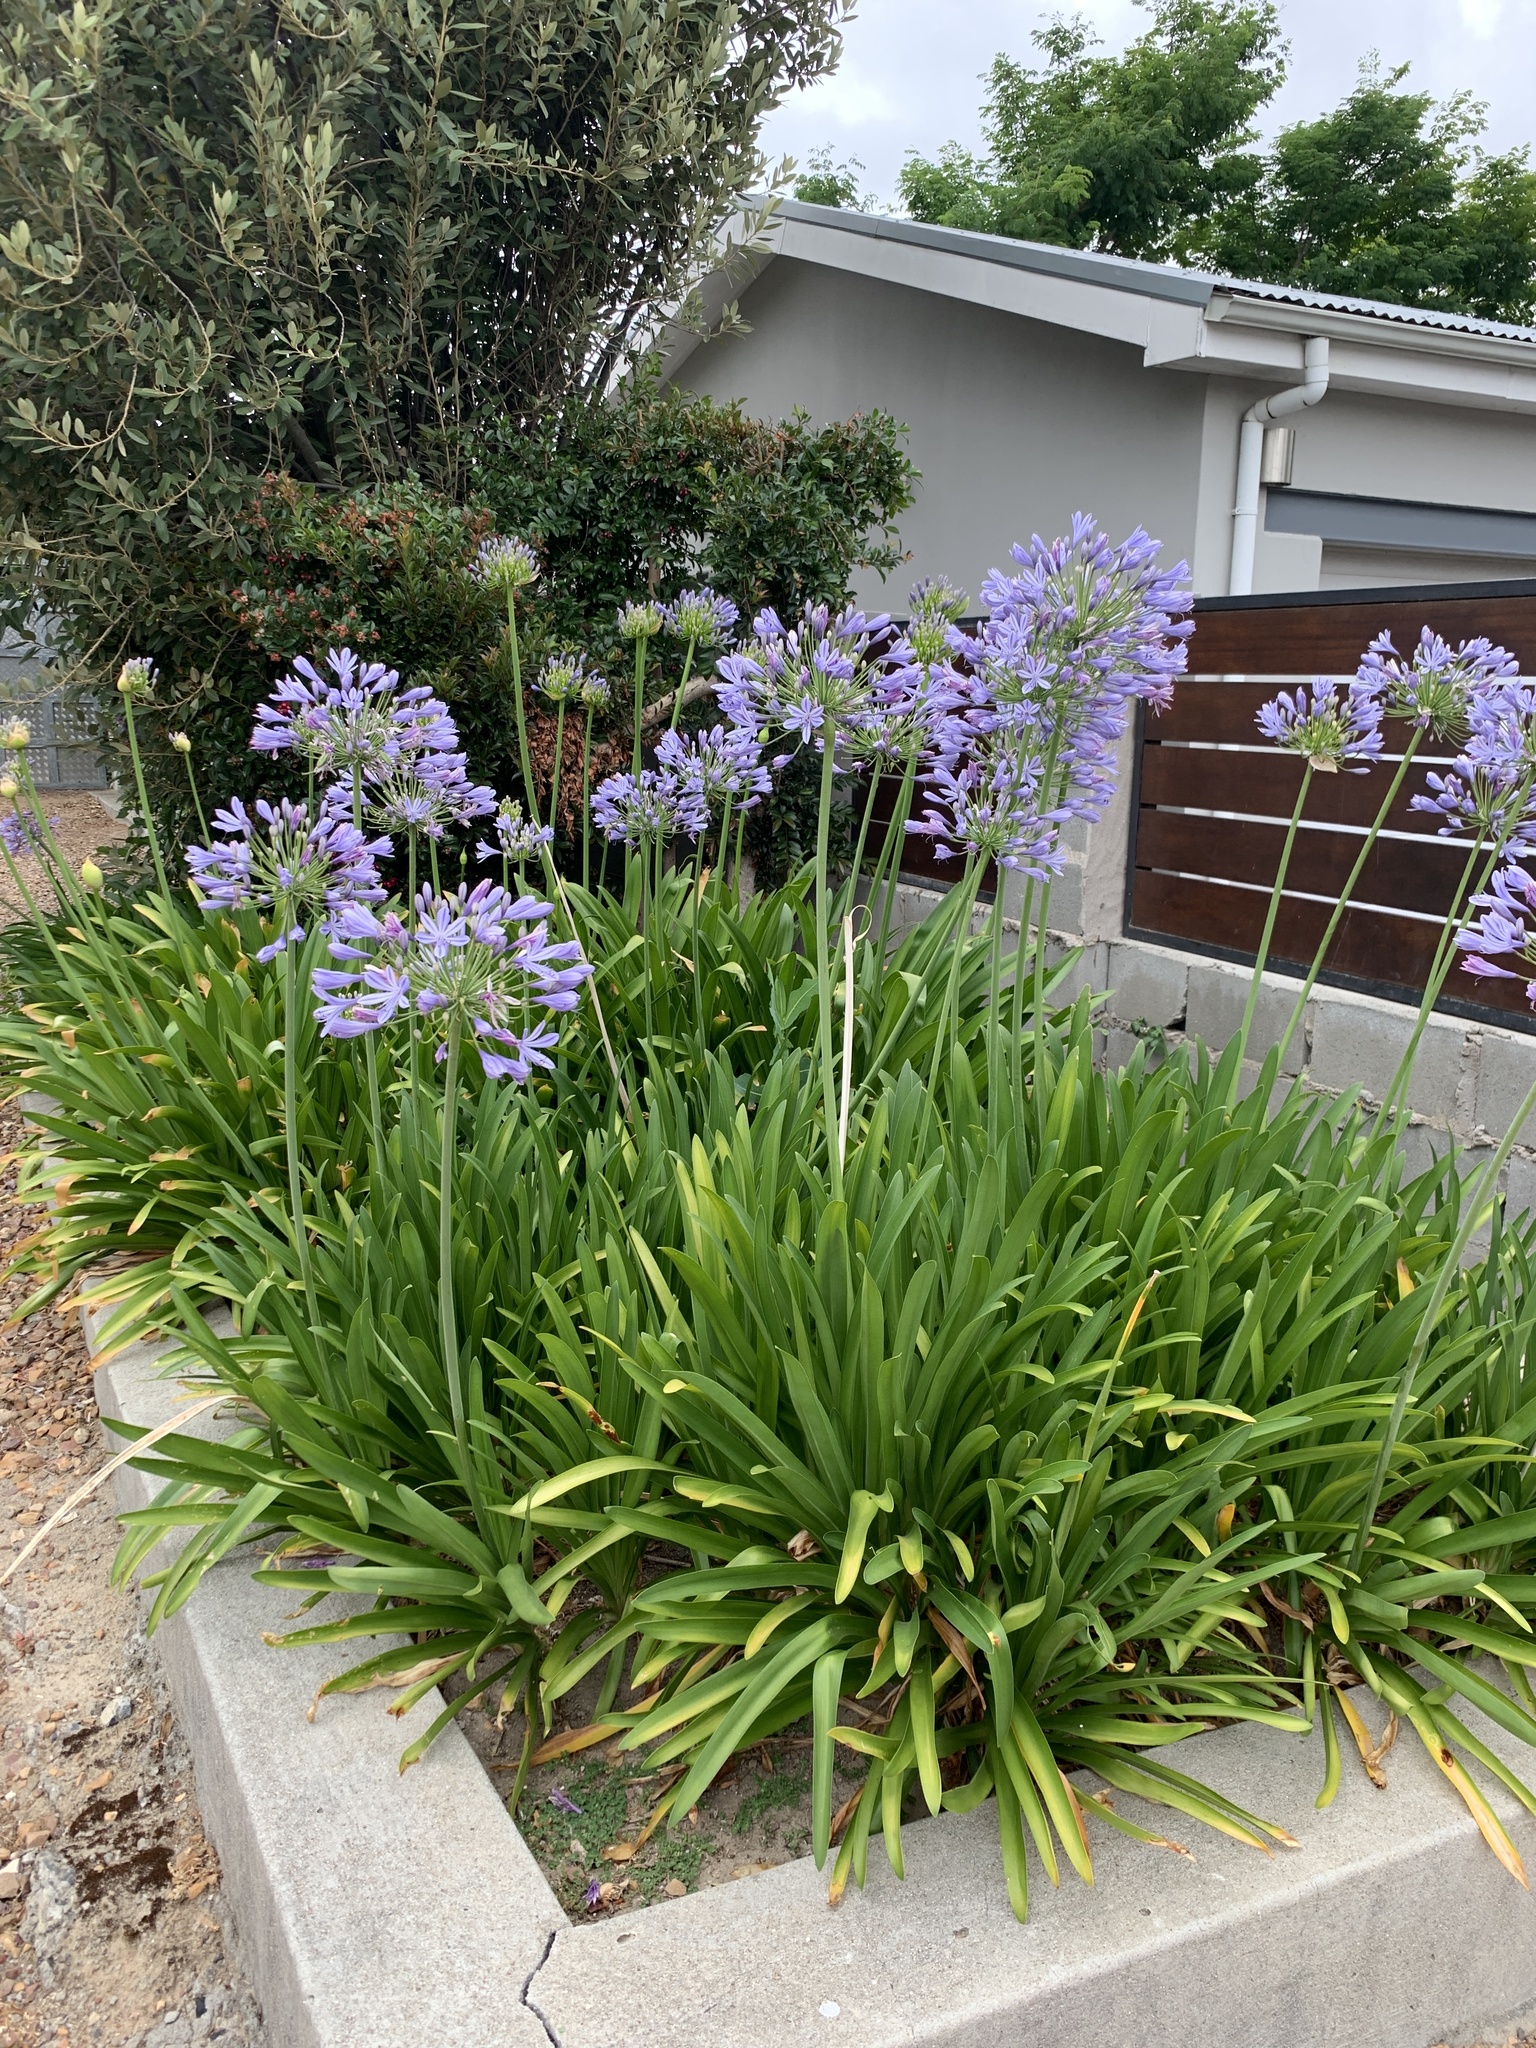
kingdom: Plantae
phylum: Tracheophyta
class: Liliopsida
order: Asparagales
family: Amaryllidaceae
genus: Agapanthus
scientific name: Agapanthus africanus
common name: Lily-of-the-nile
